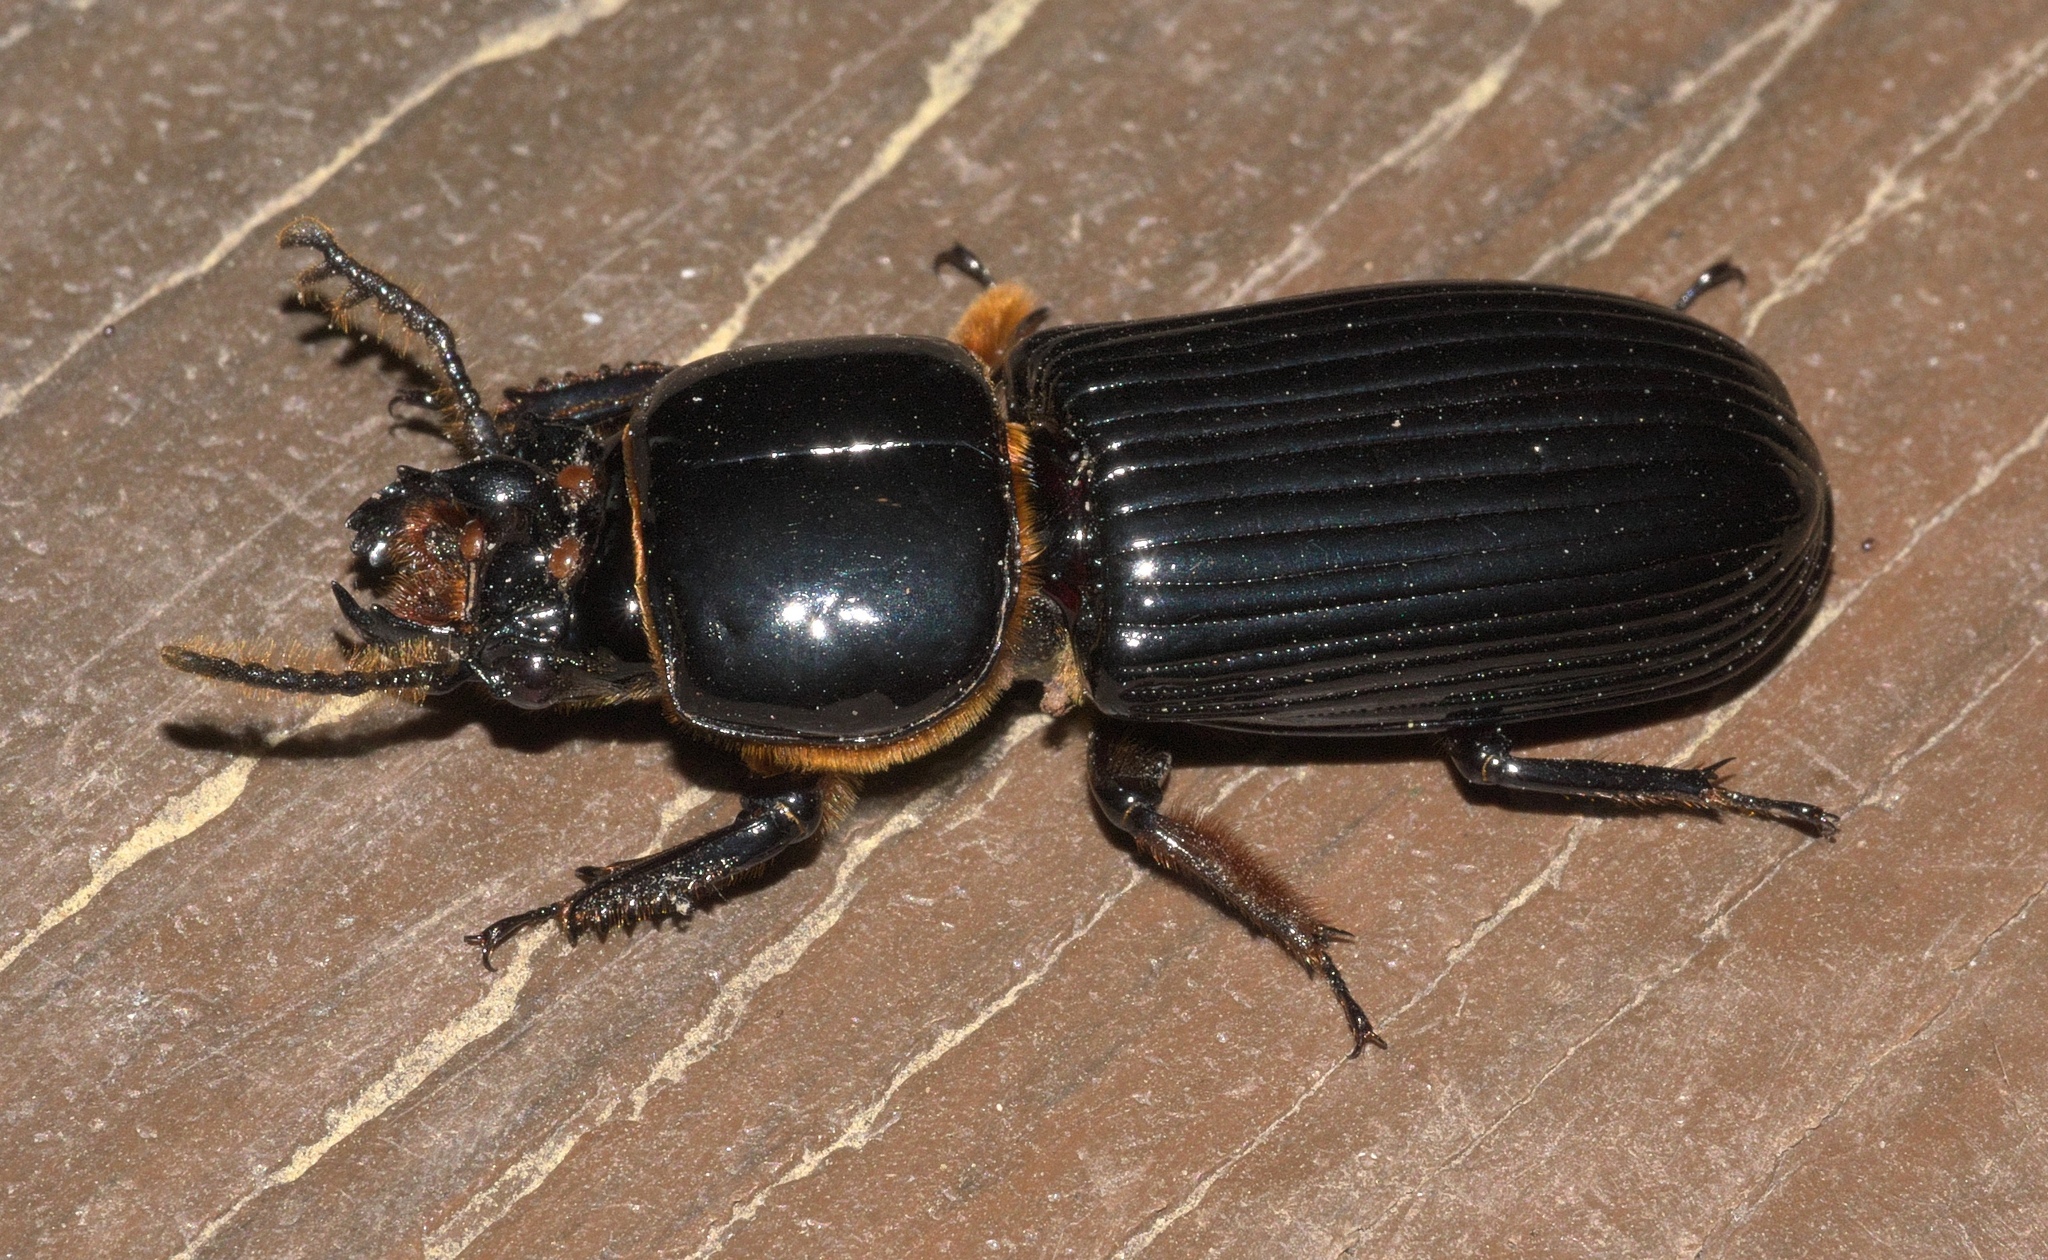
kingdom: Animalia
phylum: Arthropoda
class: Insecta
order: Coleoptera
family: Passalidae
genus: Odontotaenius
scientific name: Odontotaenius disjunctus
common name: Patent leather beetle
